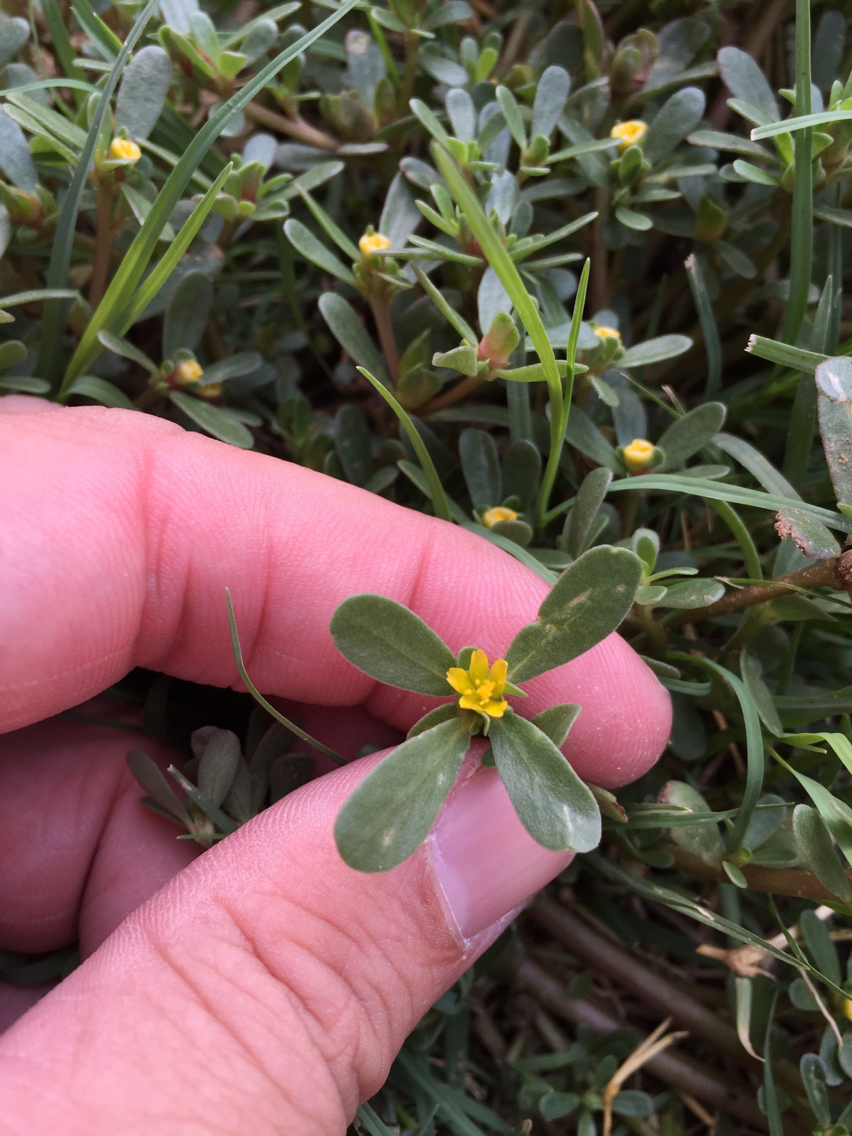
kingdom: Plantae
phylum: Tracheophyta
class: Magnoliopsida
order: Caryophyllales
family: Portulacaceae
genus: Portulaca
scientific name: Portulaca oleracea
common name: Common purslane
